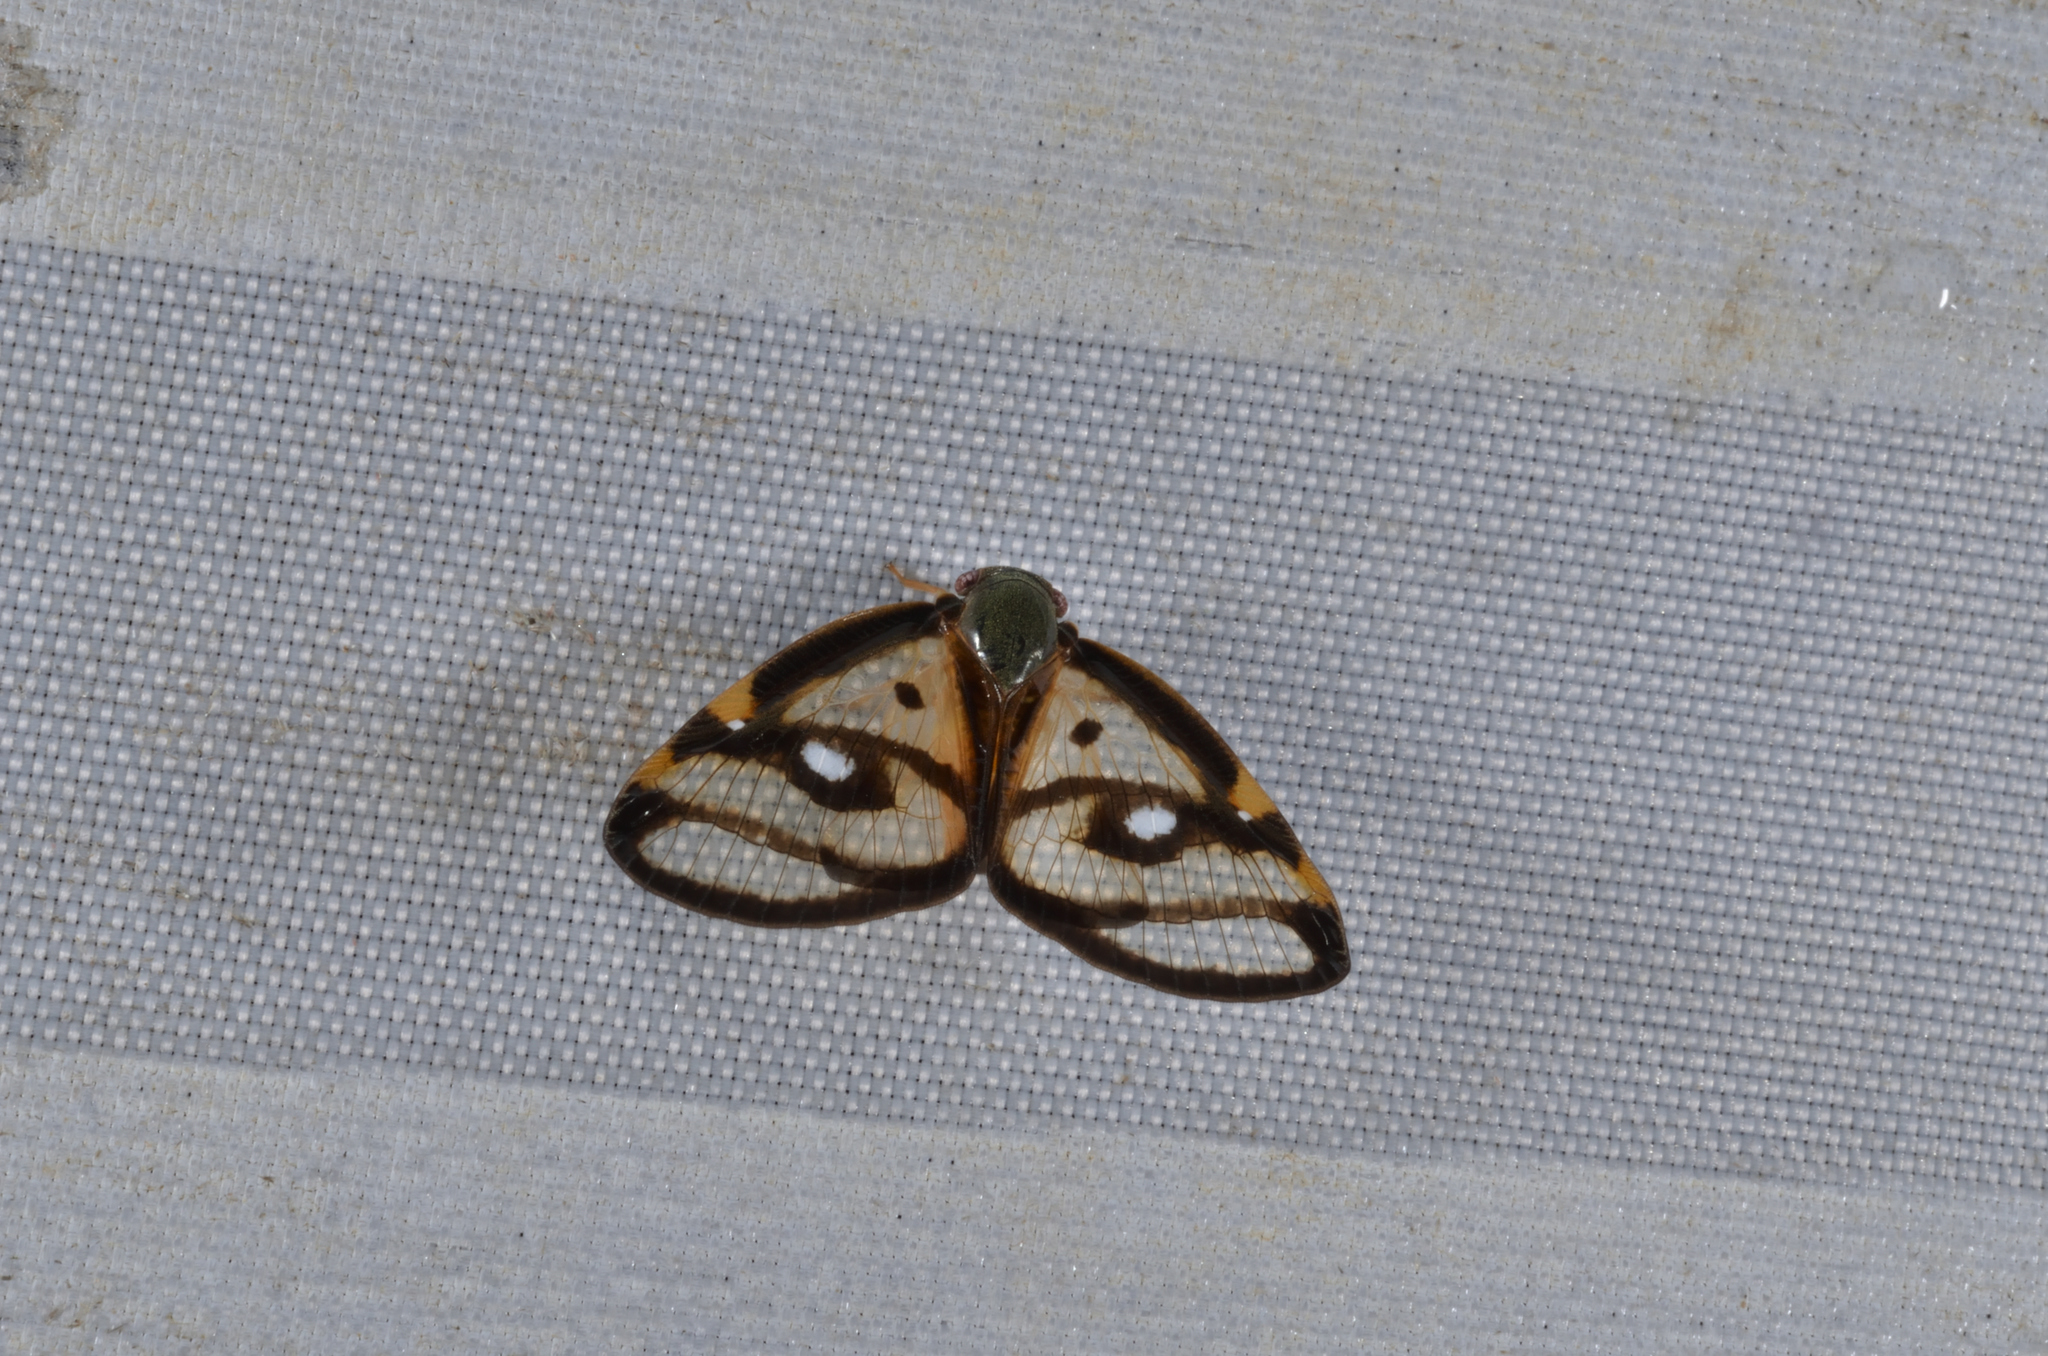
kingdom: Animalia
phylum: Arthropoda
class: Insecta
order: Hemiptera
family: Ricaniidae
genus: Euricania
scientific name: Euricania ocella
